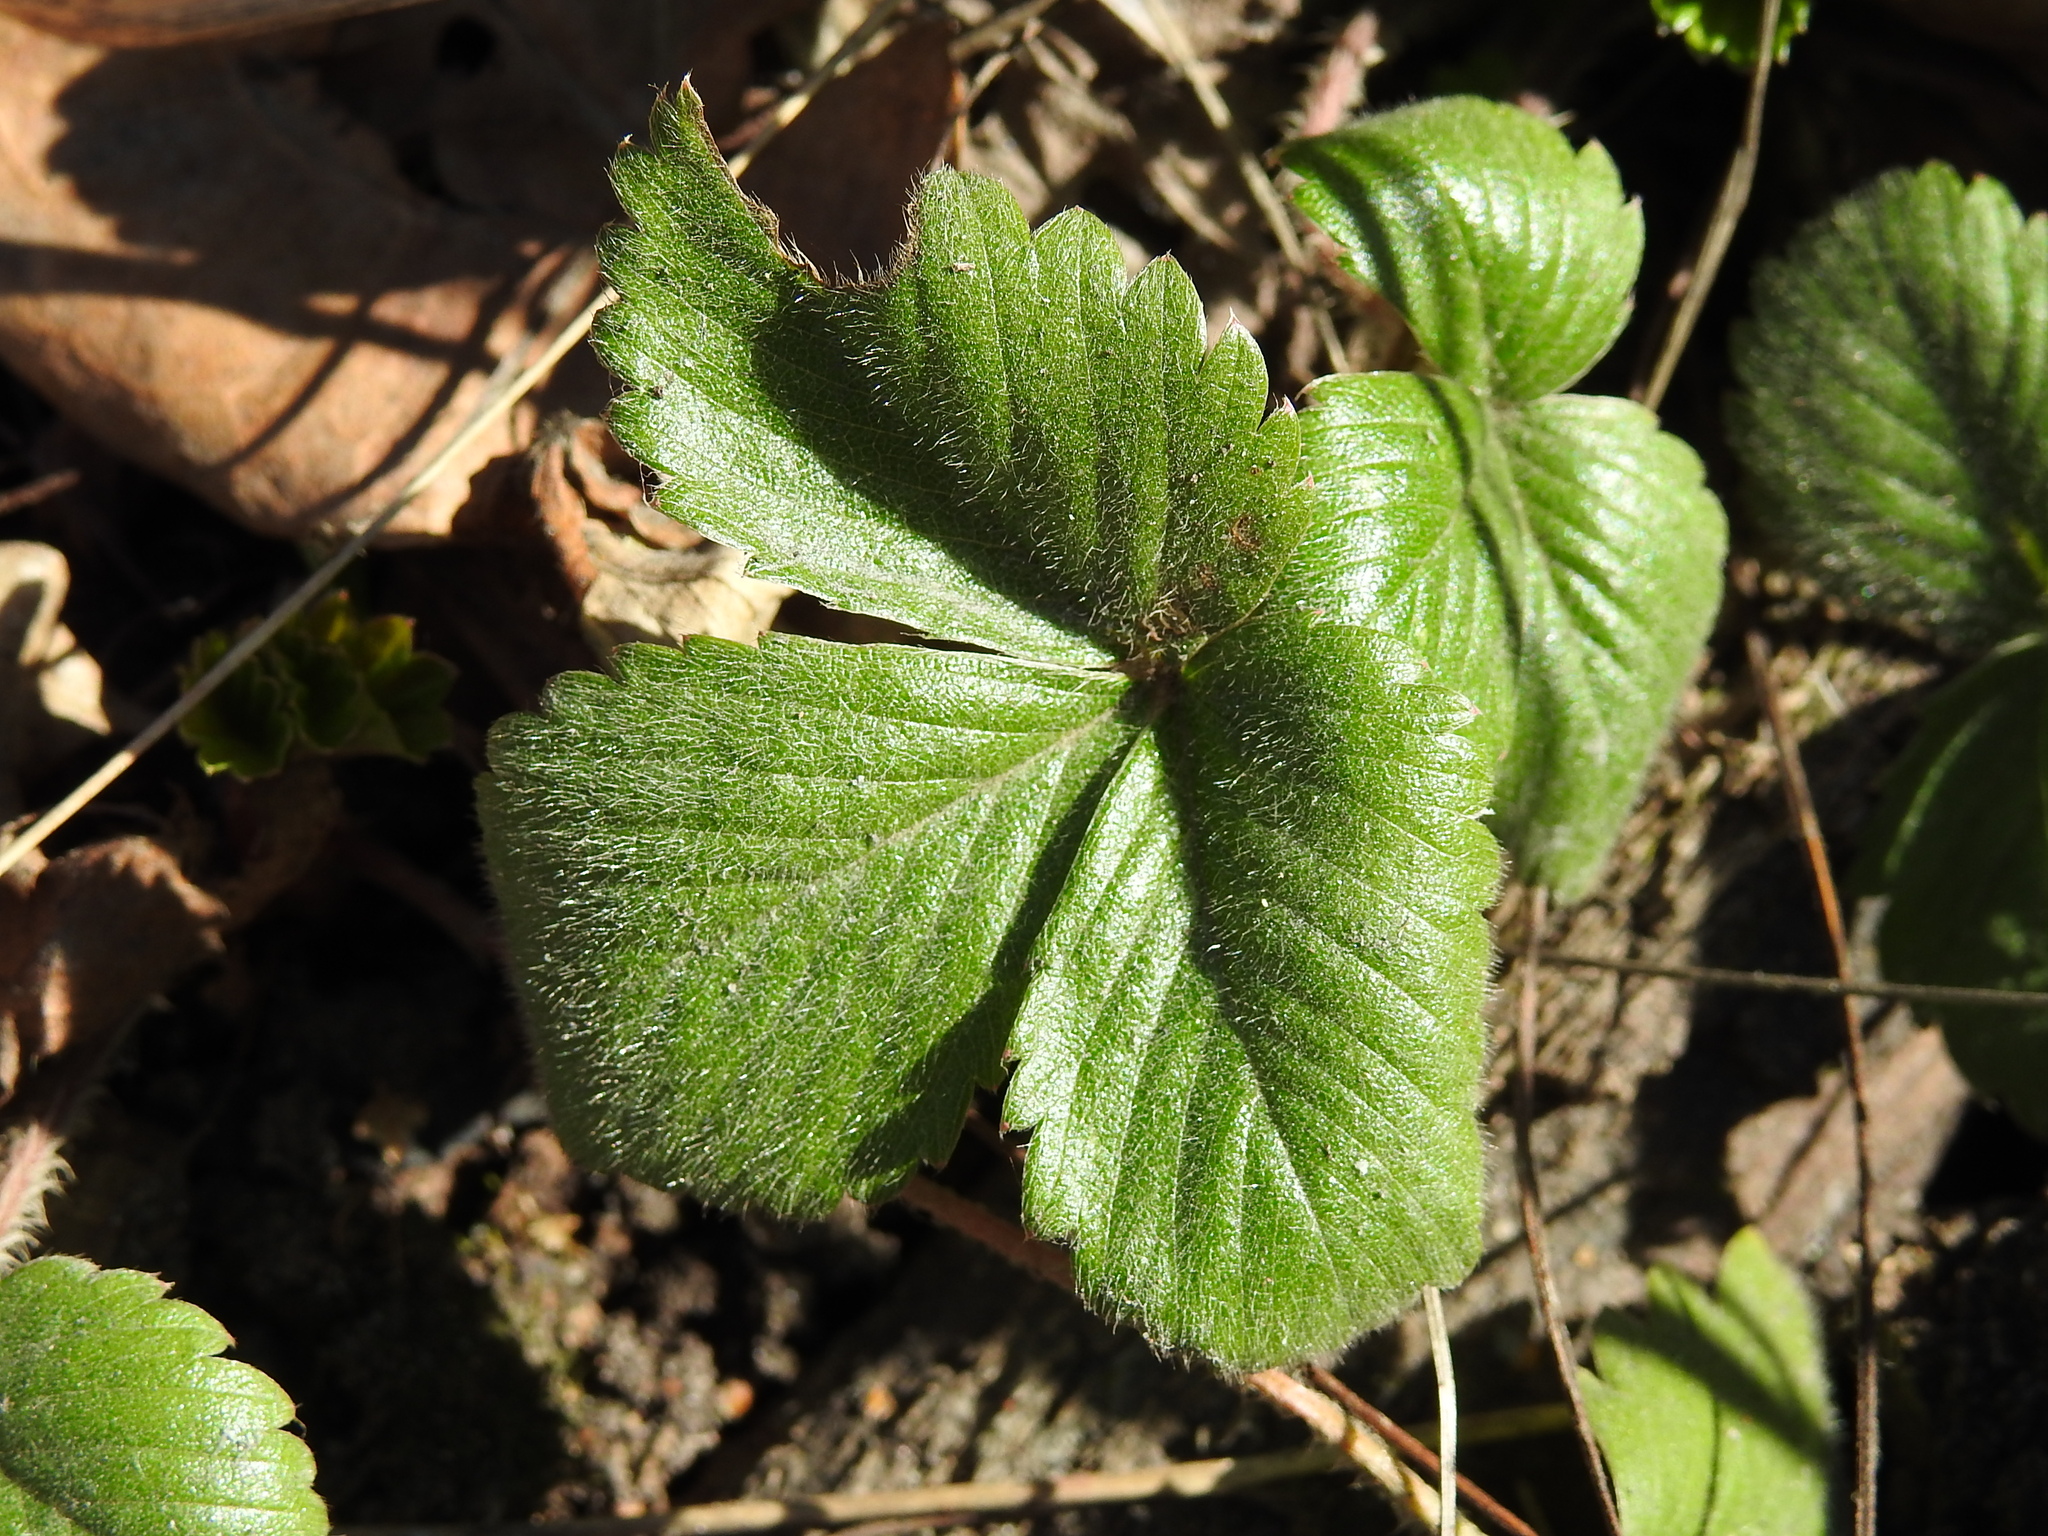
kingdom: Plantae
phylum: Tracheophyta
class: Magnoliopsida
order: Rosales
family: Rosaceae
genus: Fragaria
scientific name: Fragaria vesca
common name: Wild strawberry
